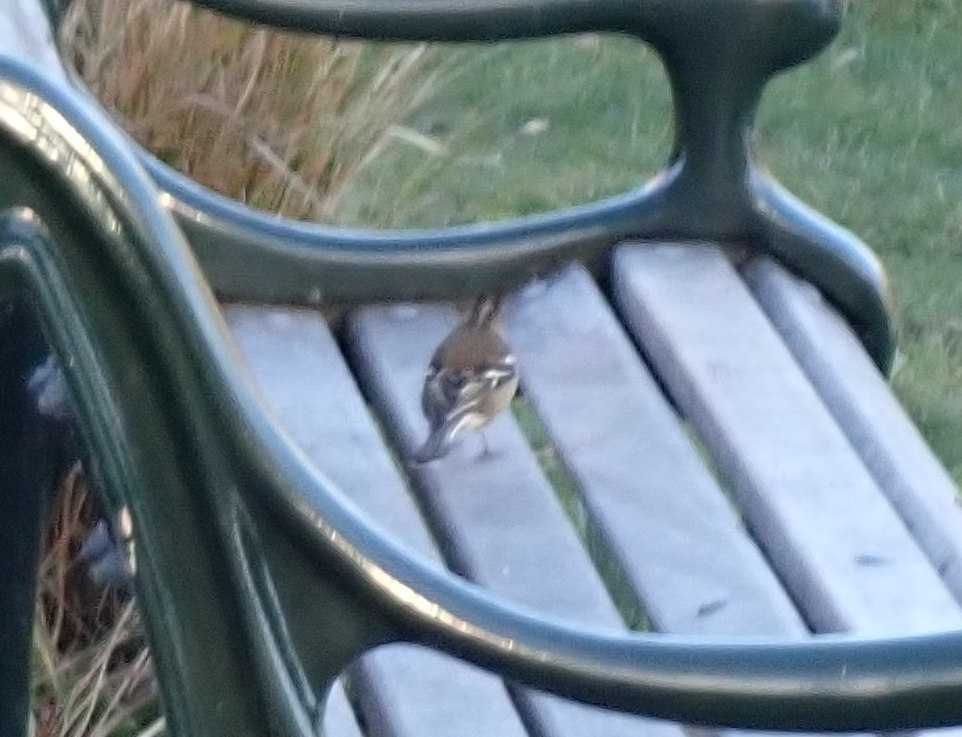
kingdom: Animalia
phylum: Chordata
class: Aves
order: Passeriformes
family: Fringillidae
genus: Fringilla
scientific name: Fringilla coelebs
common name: Common chaffinch
